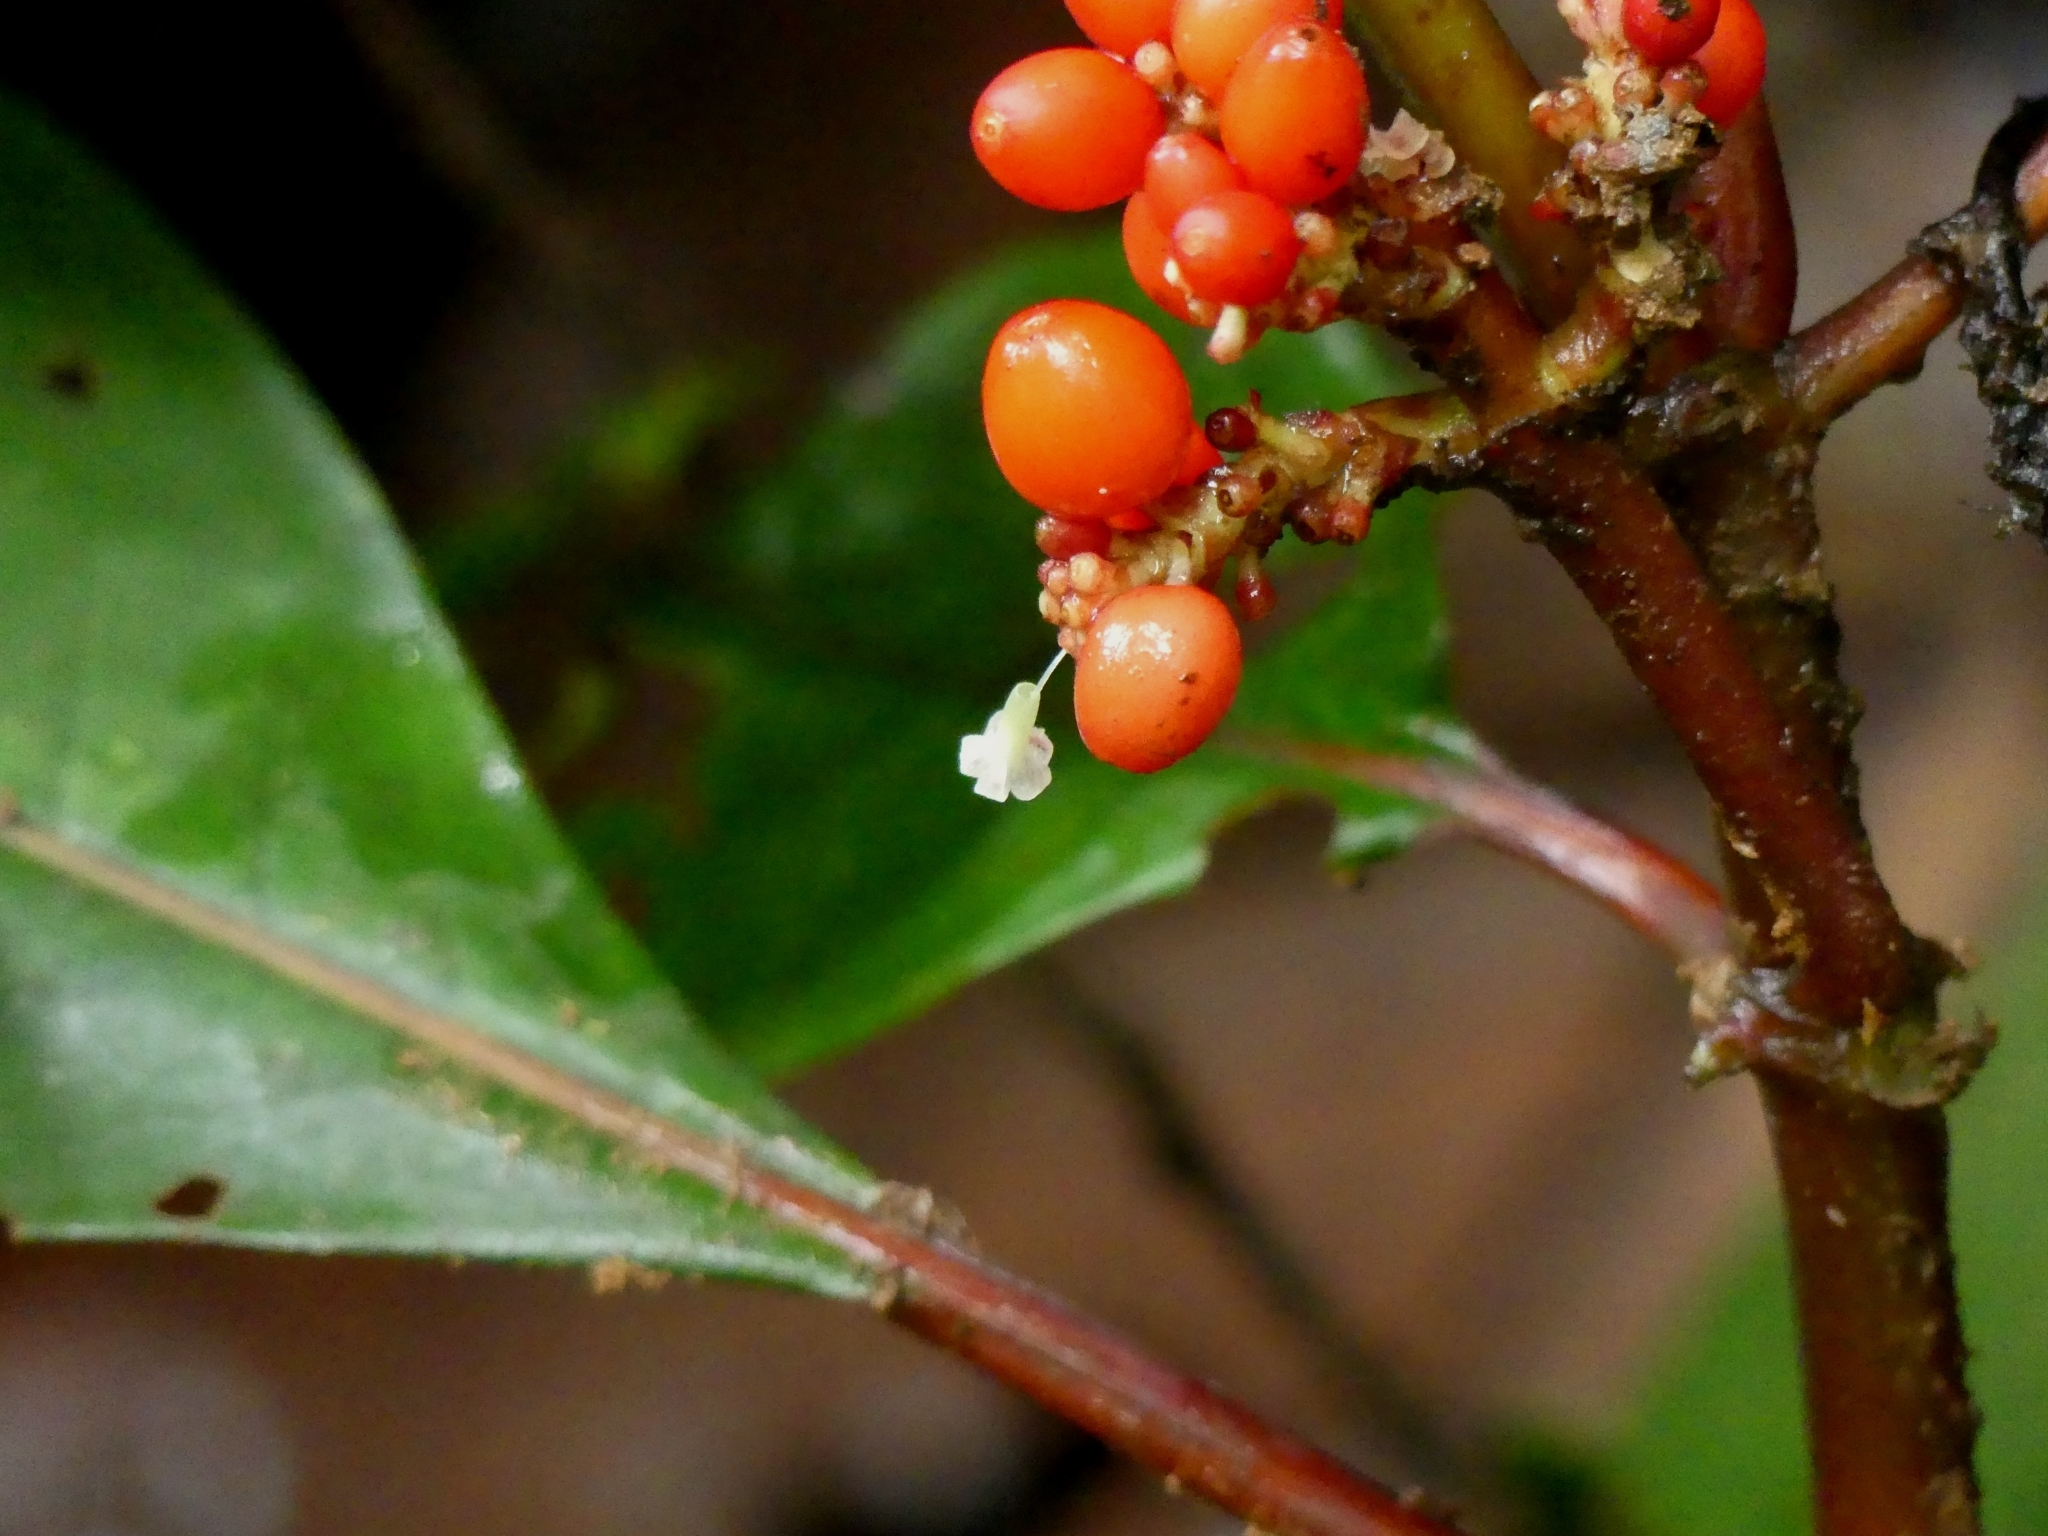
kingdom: Plantae
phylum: Tracheophyta
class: Magnoliopsida
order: Gentianales
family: Rubiaceae
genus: Notopleura
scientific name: Notopleura uliginosa
